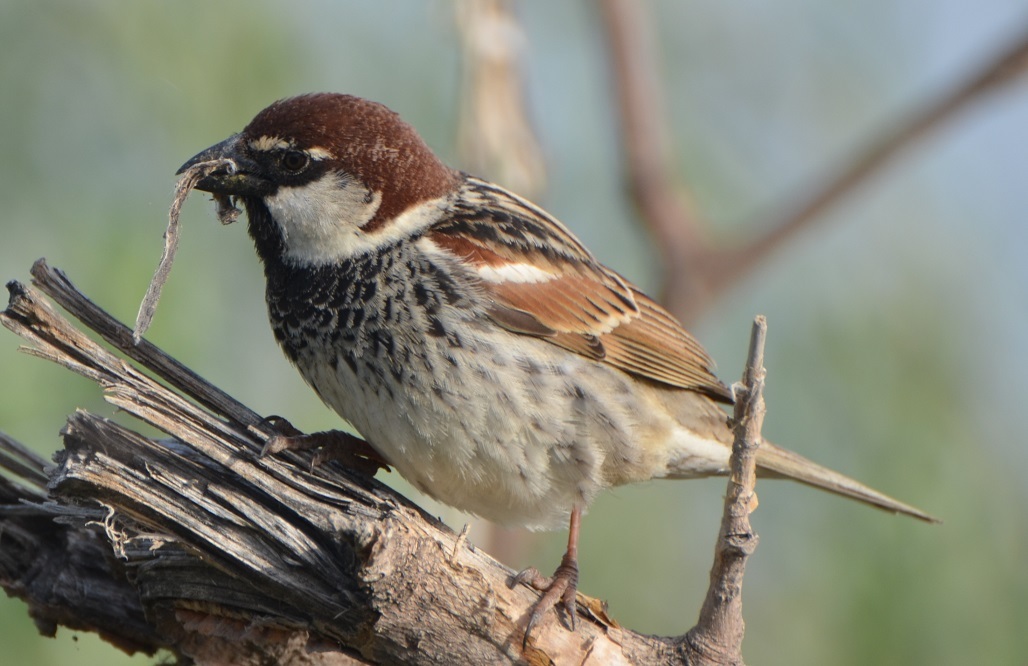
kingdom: Animalia
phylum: Chordata
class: Aves
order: Passeriformes
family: Passeridae
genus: Passer
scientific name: Passer hispaniolensis
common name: Spanish sparrow
